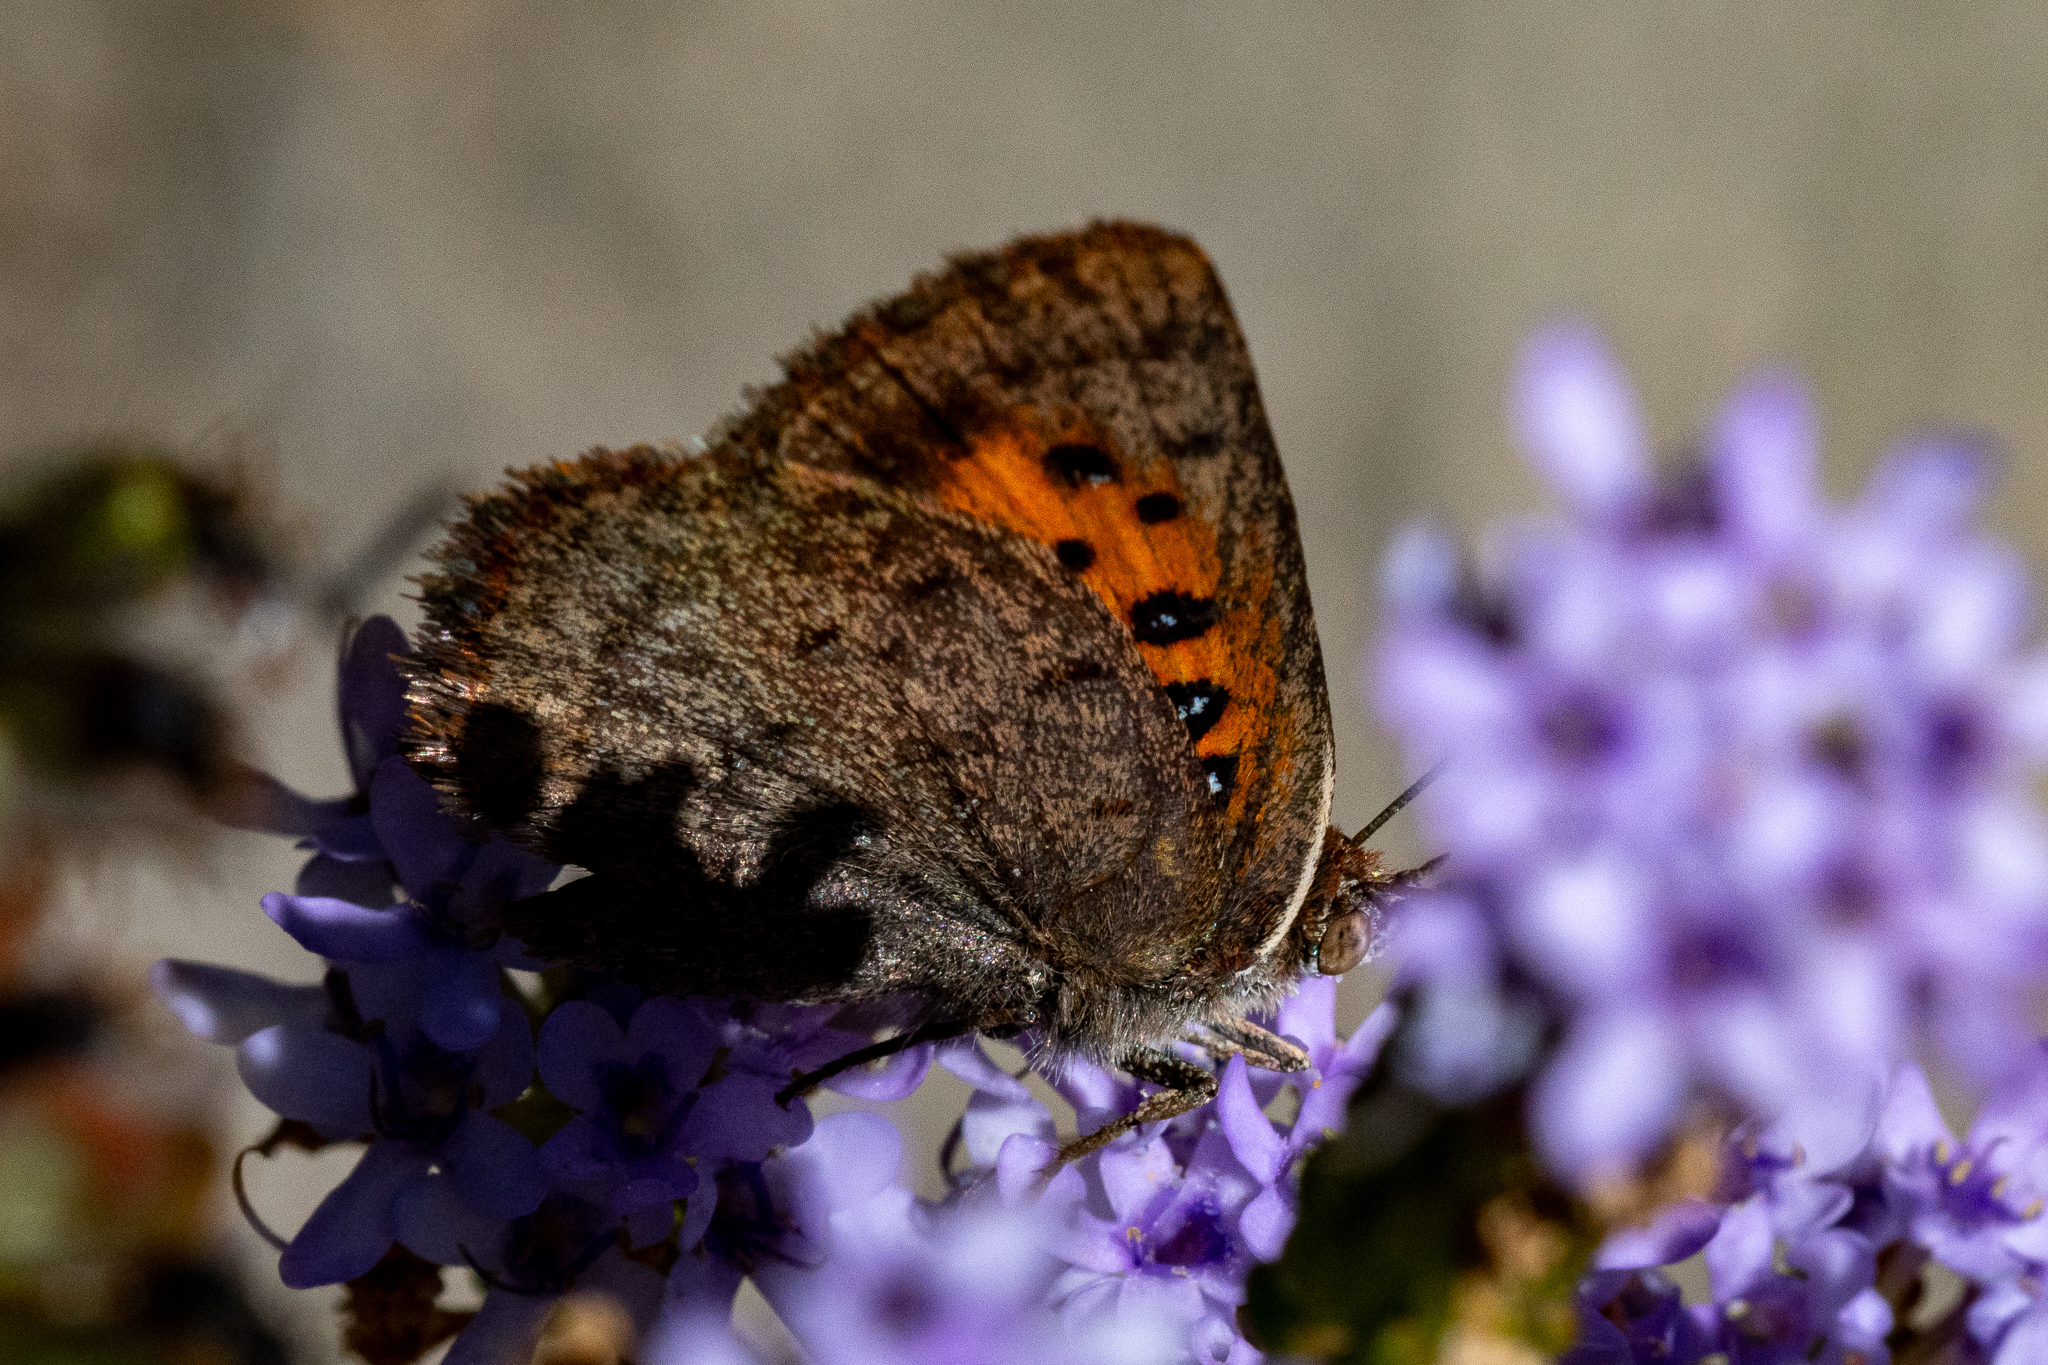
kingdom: Animalia
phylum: Arthropoda
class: Insecta
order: Lepidoptera
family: Lycaenidae
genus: Axiocerses
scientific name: Axiocerses thyra
